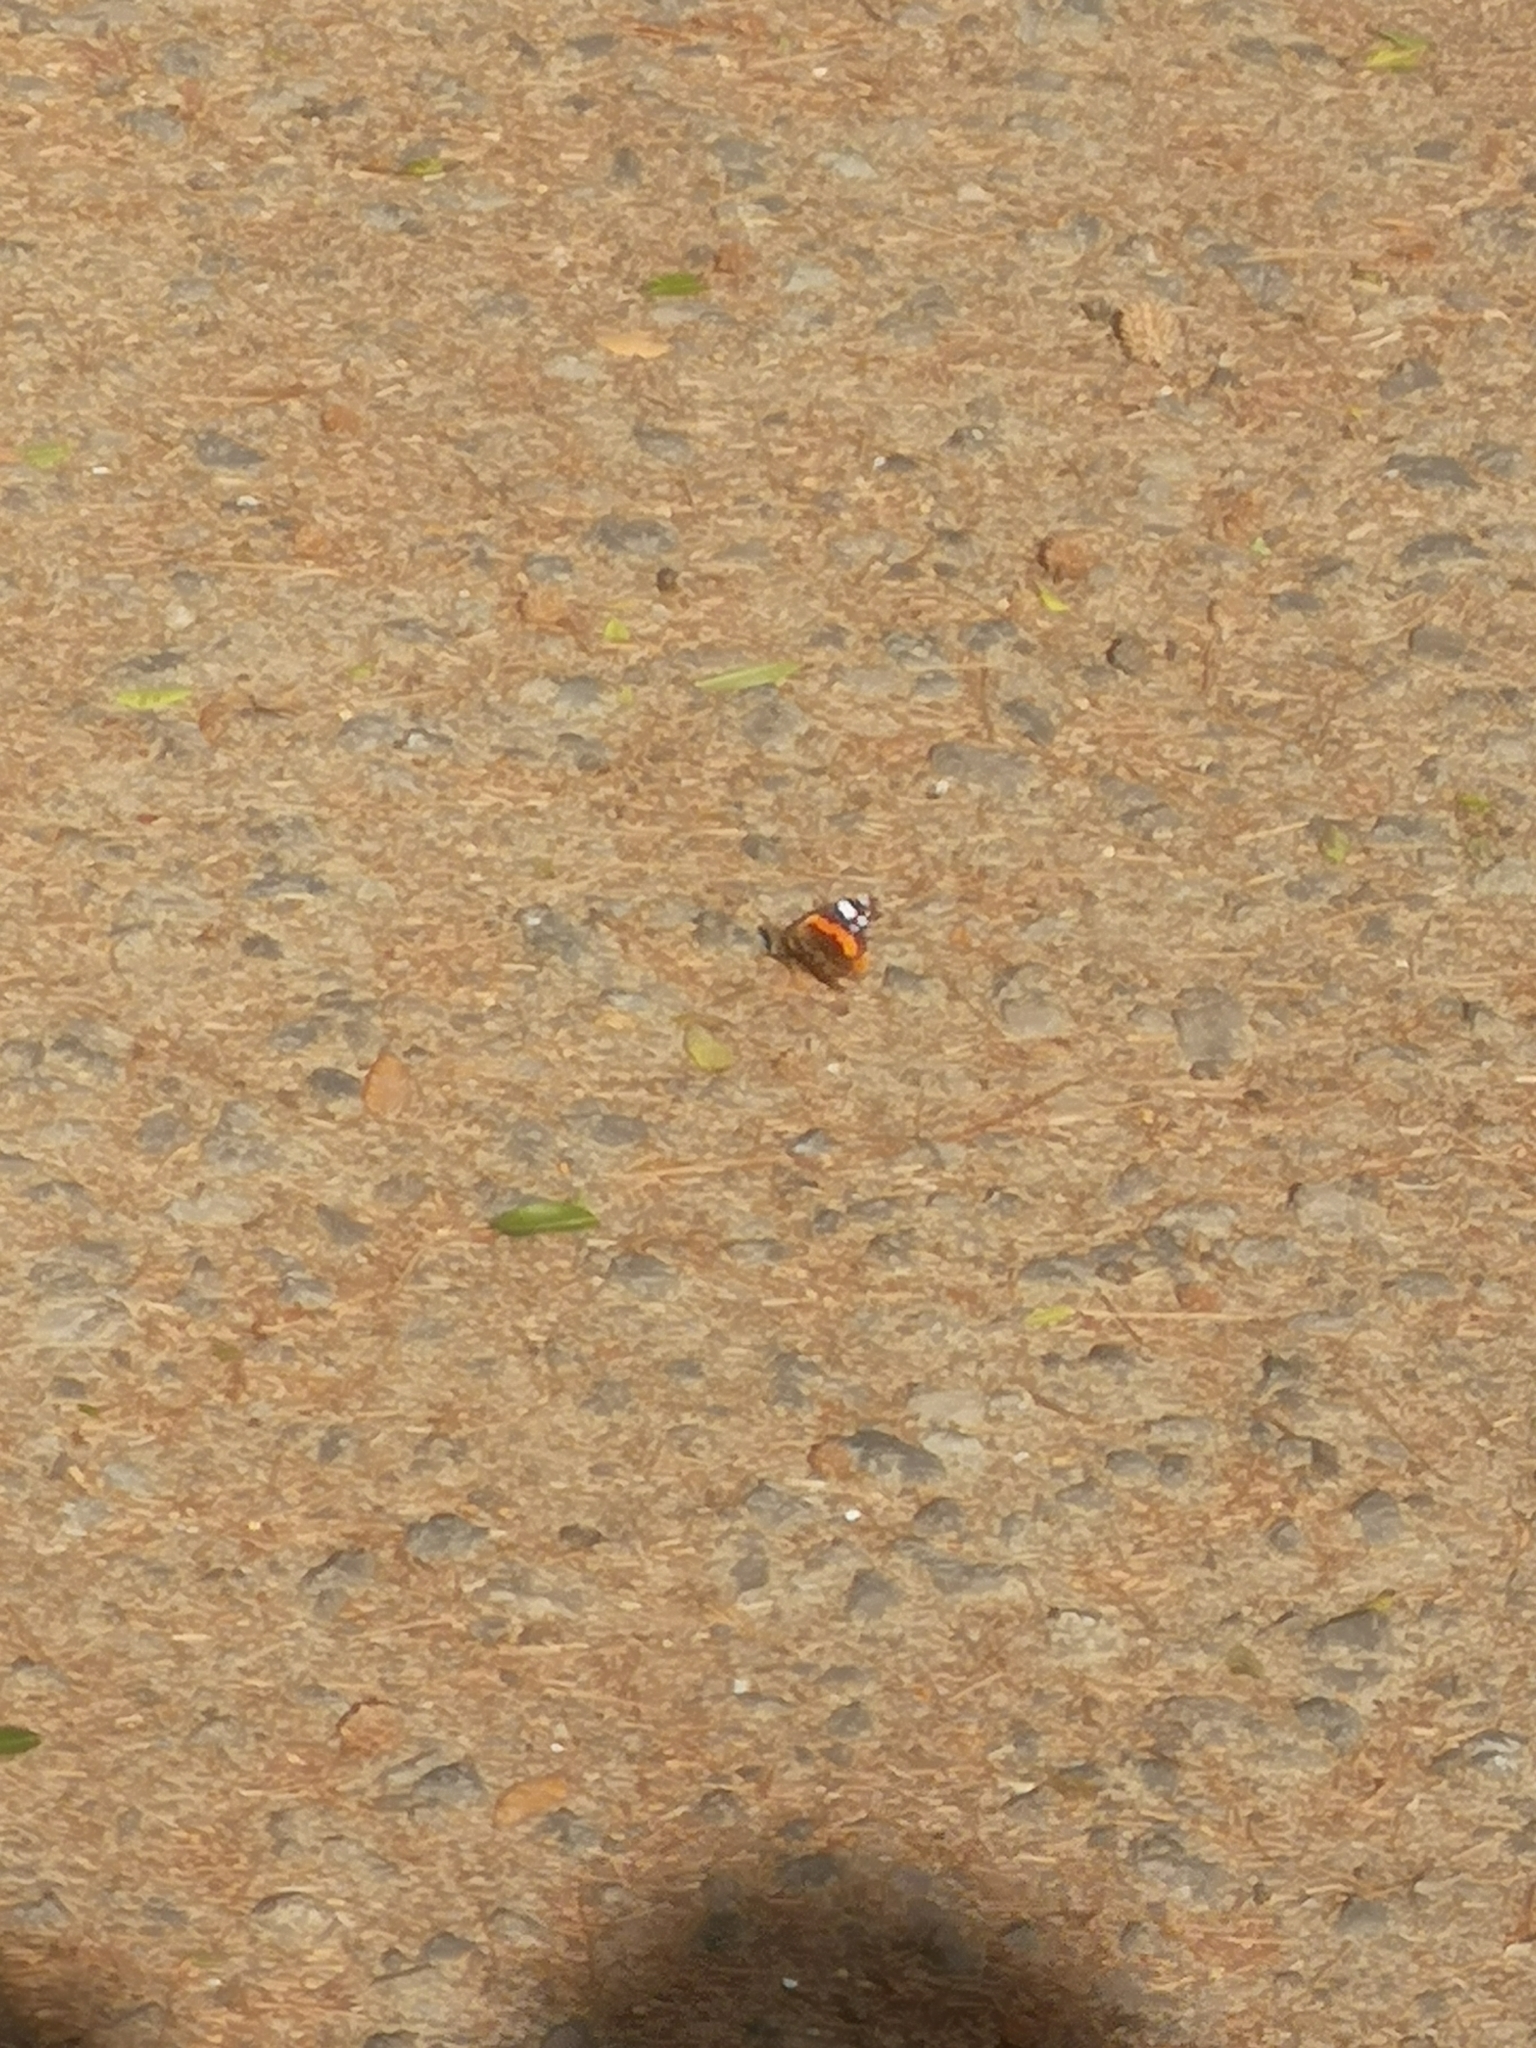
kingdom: Animalia
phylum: Arthropoda
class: Insecta
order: Lepidoptera
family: Nymphalidae
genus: Vanessa
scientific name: Vanessa atalanta
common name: Red admiral
